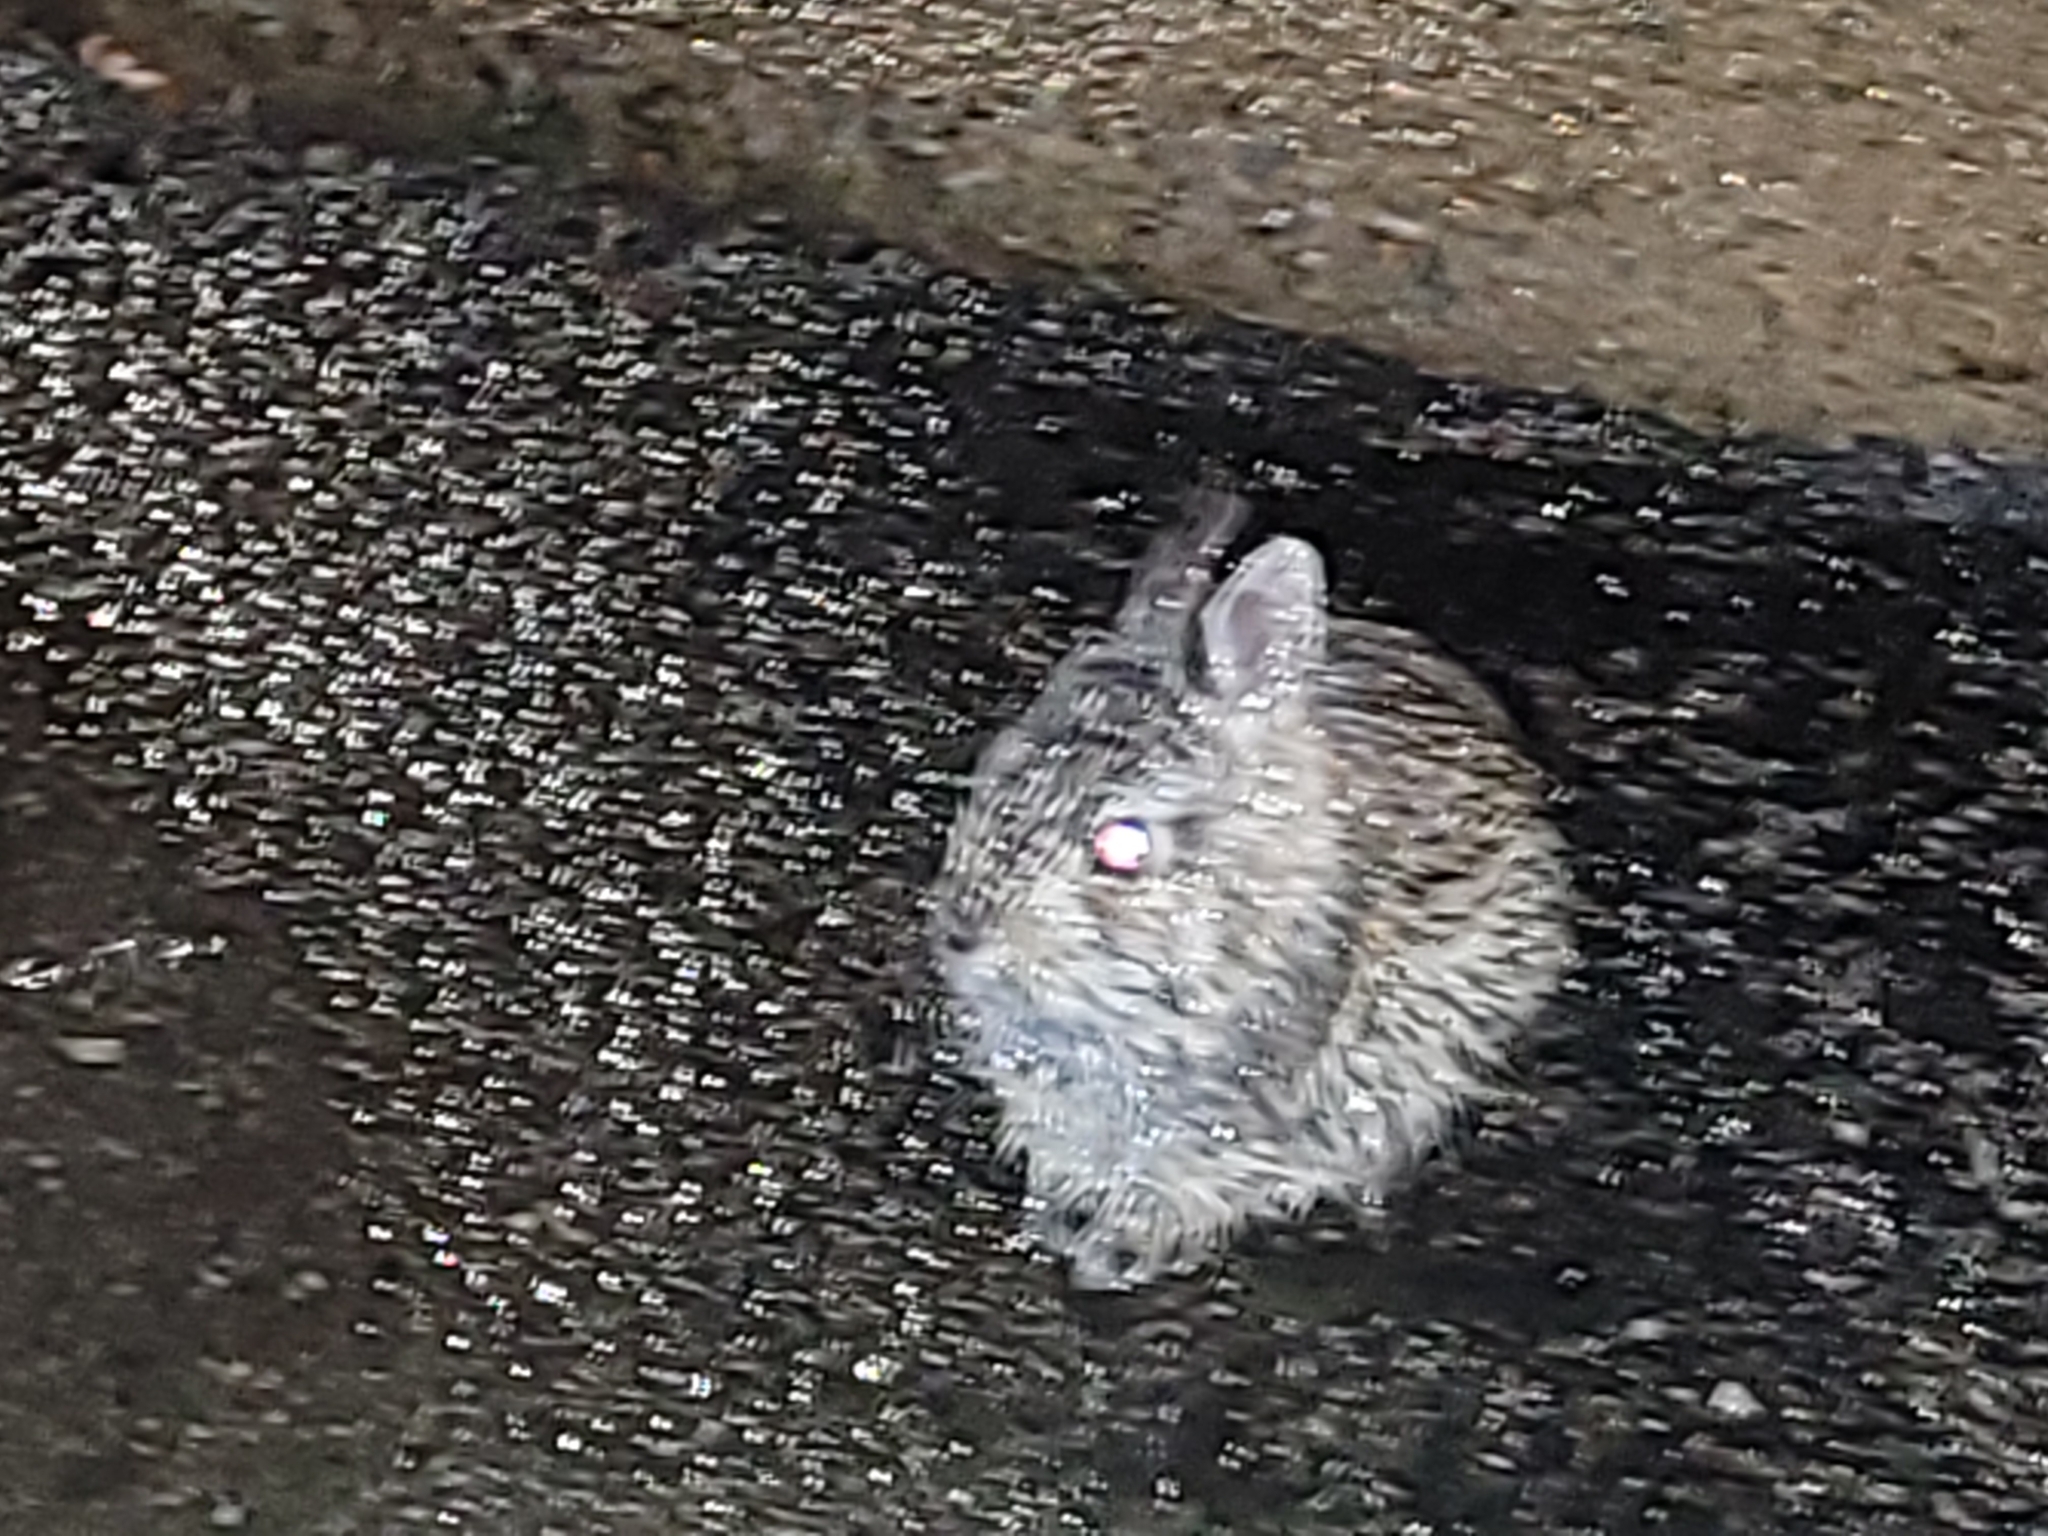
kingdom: Animalia
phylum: Chordata
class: Mammalia
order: Lagomorpha
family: Leporidae
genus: Sylvilagus
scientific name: Sylvilagus floridanus
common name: Eastern cottontail
